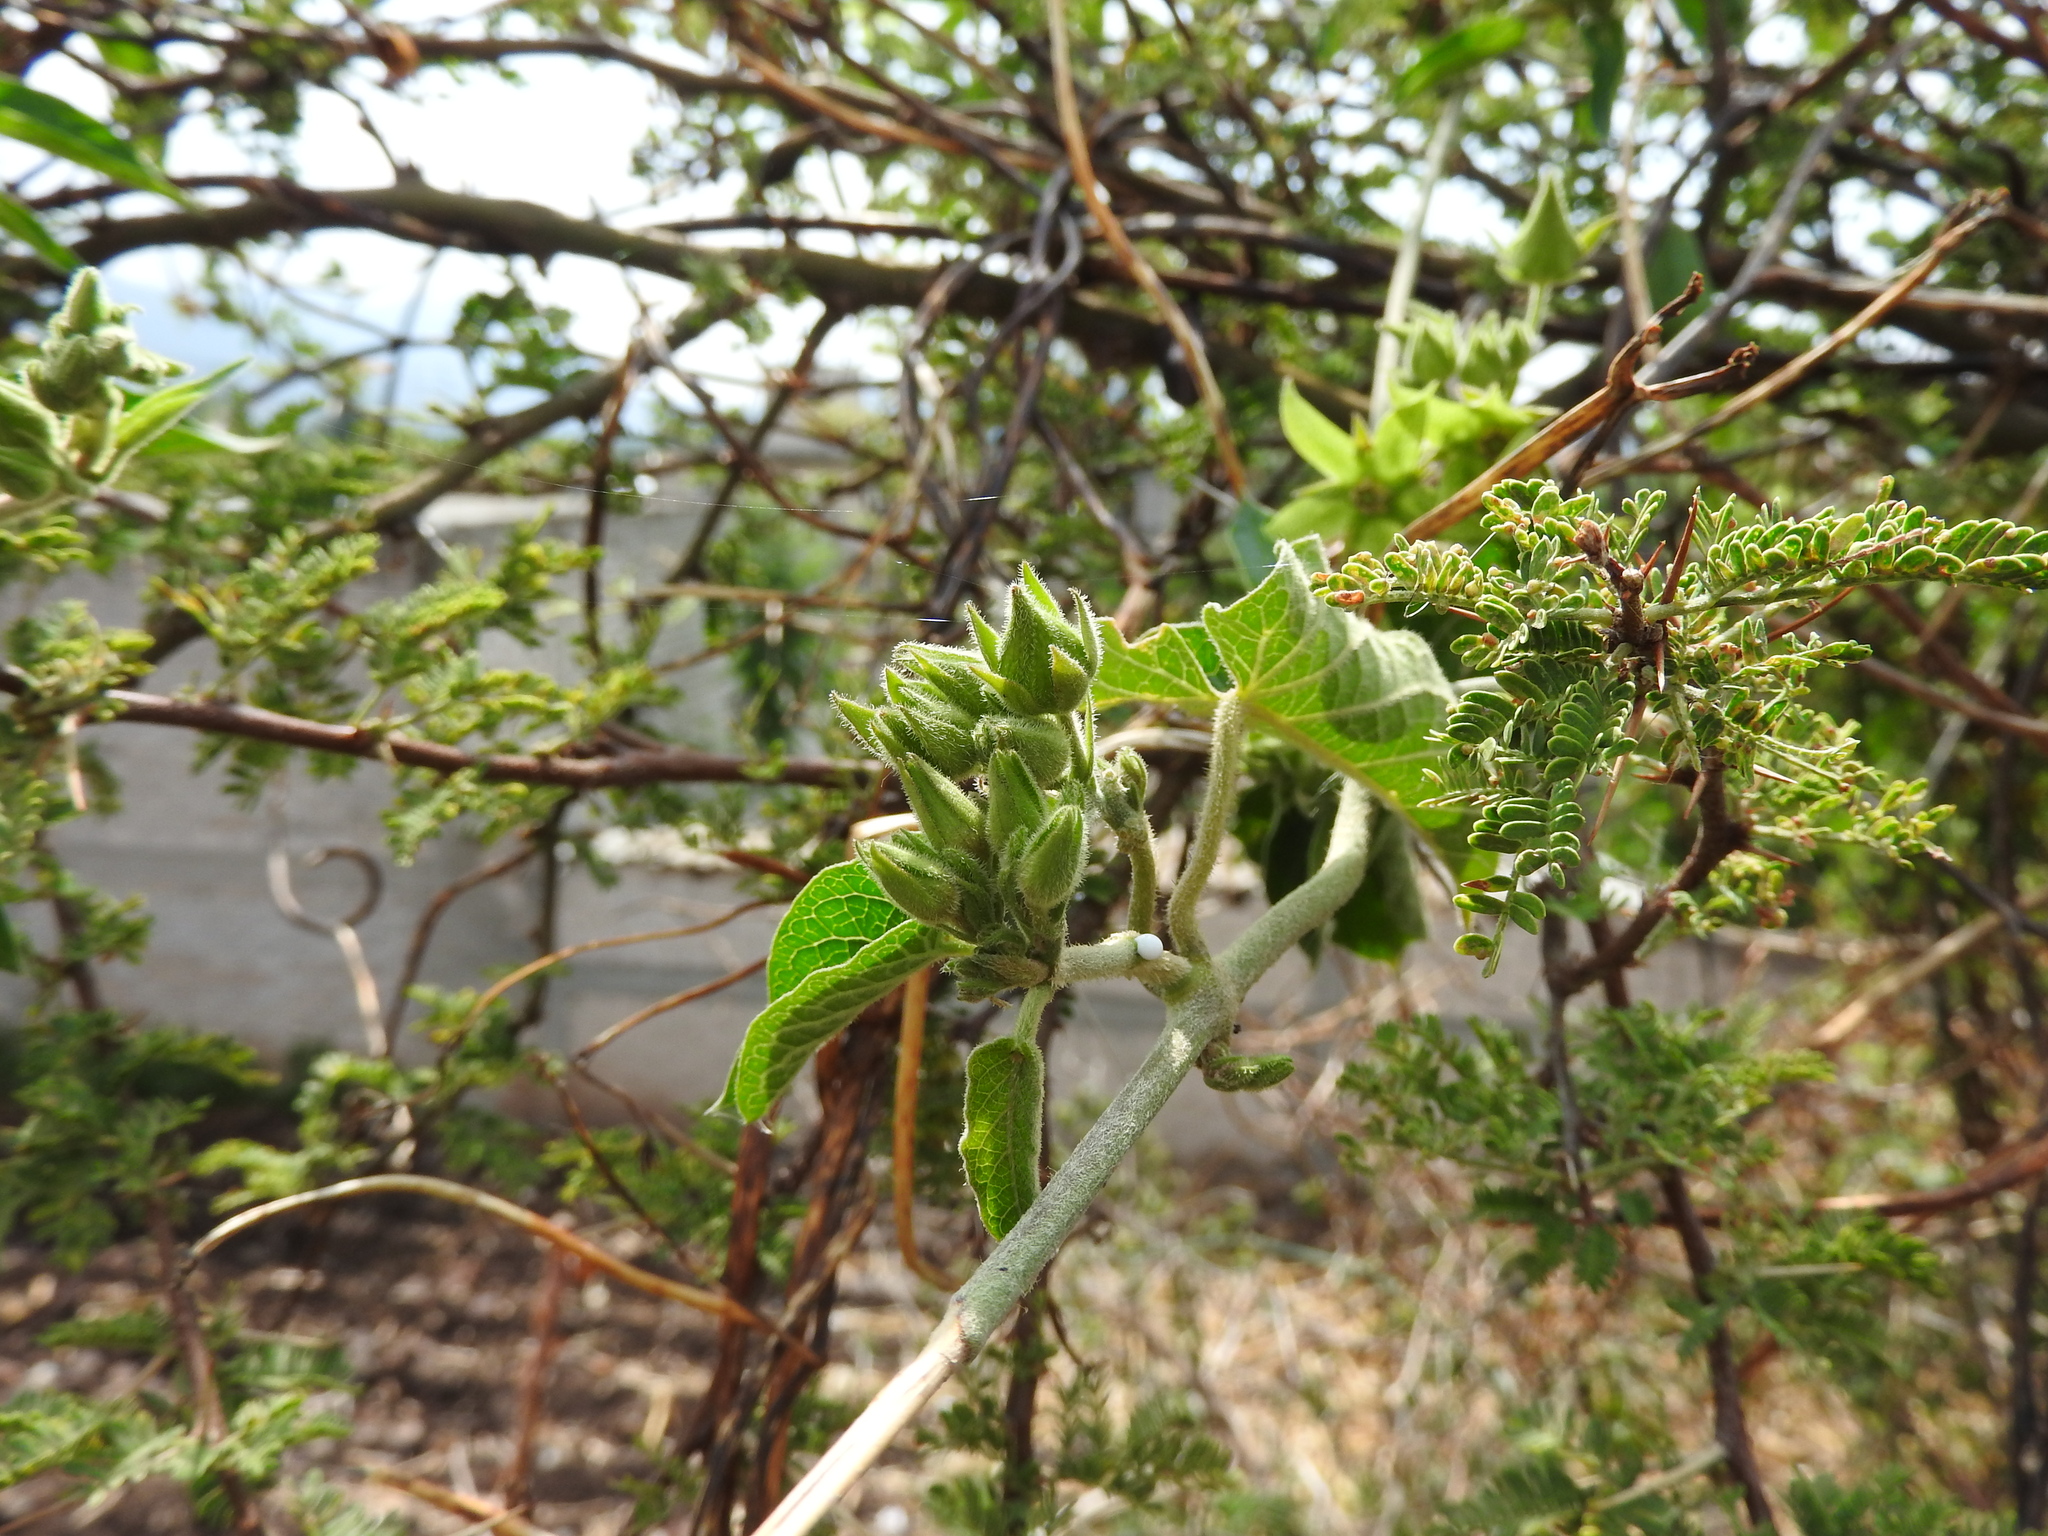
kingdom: Plantae
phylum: Tracheophyta
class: Magnoliopsida
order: Gentianales
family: Apocynaceae
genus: Gonolobus
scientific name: Gonolobus grandiflorus
